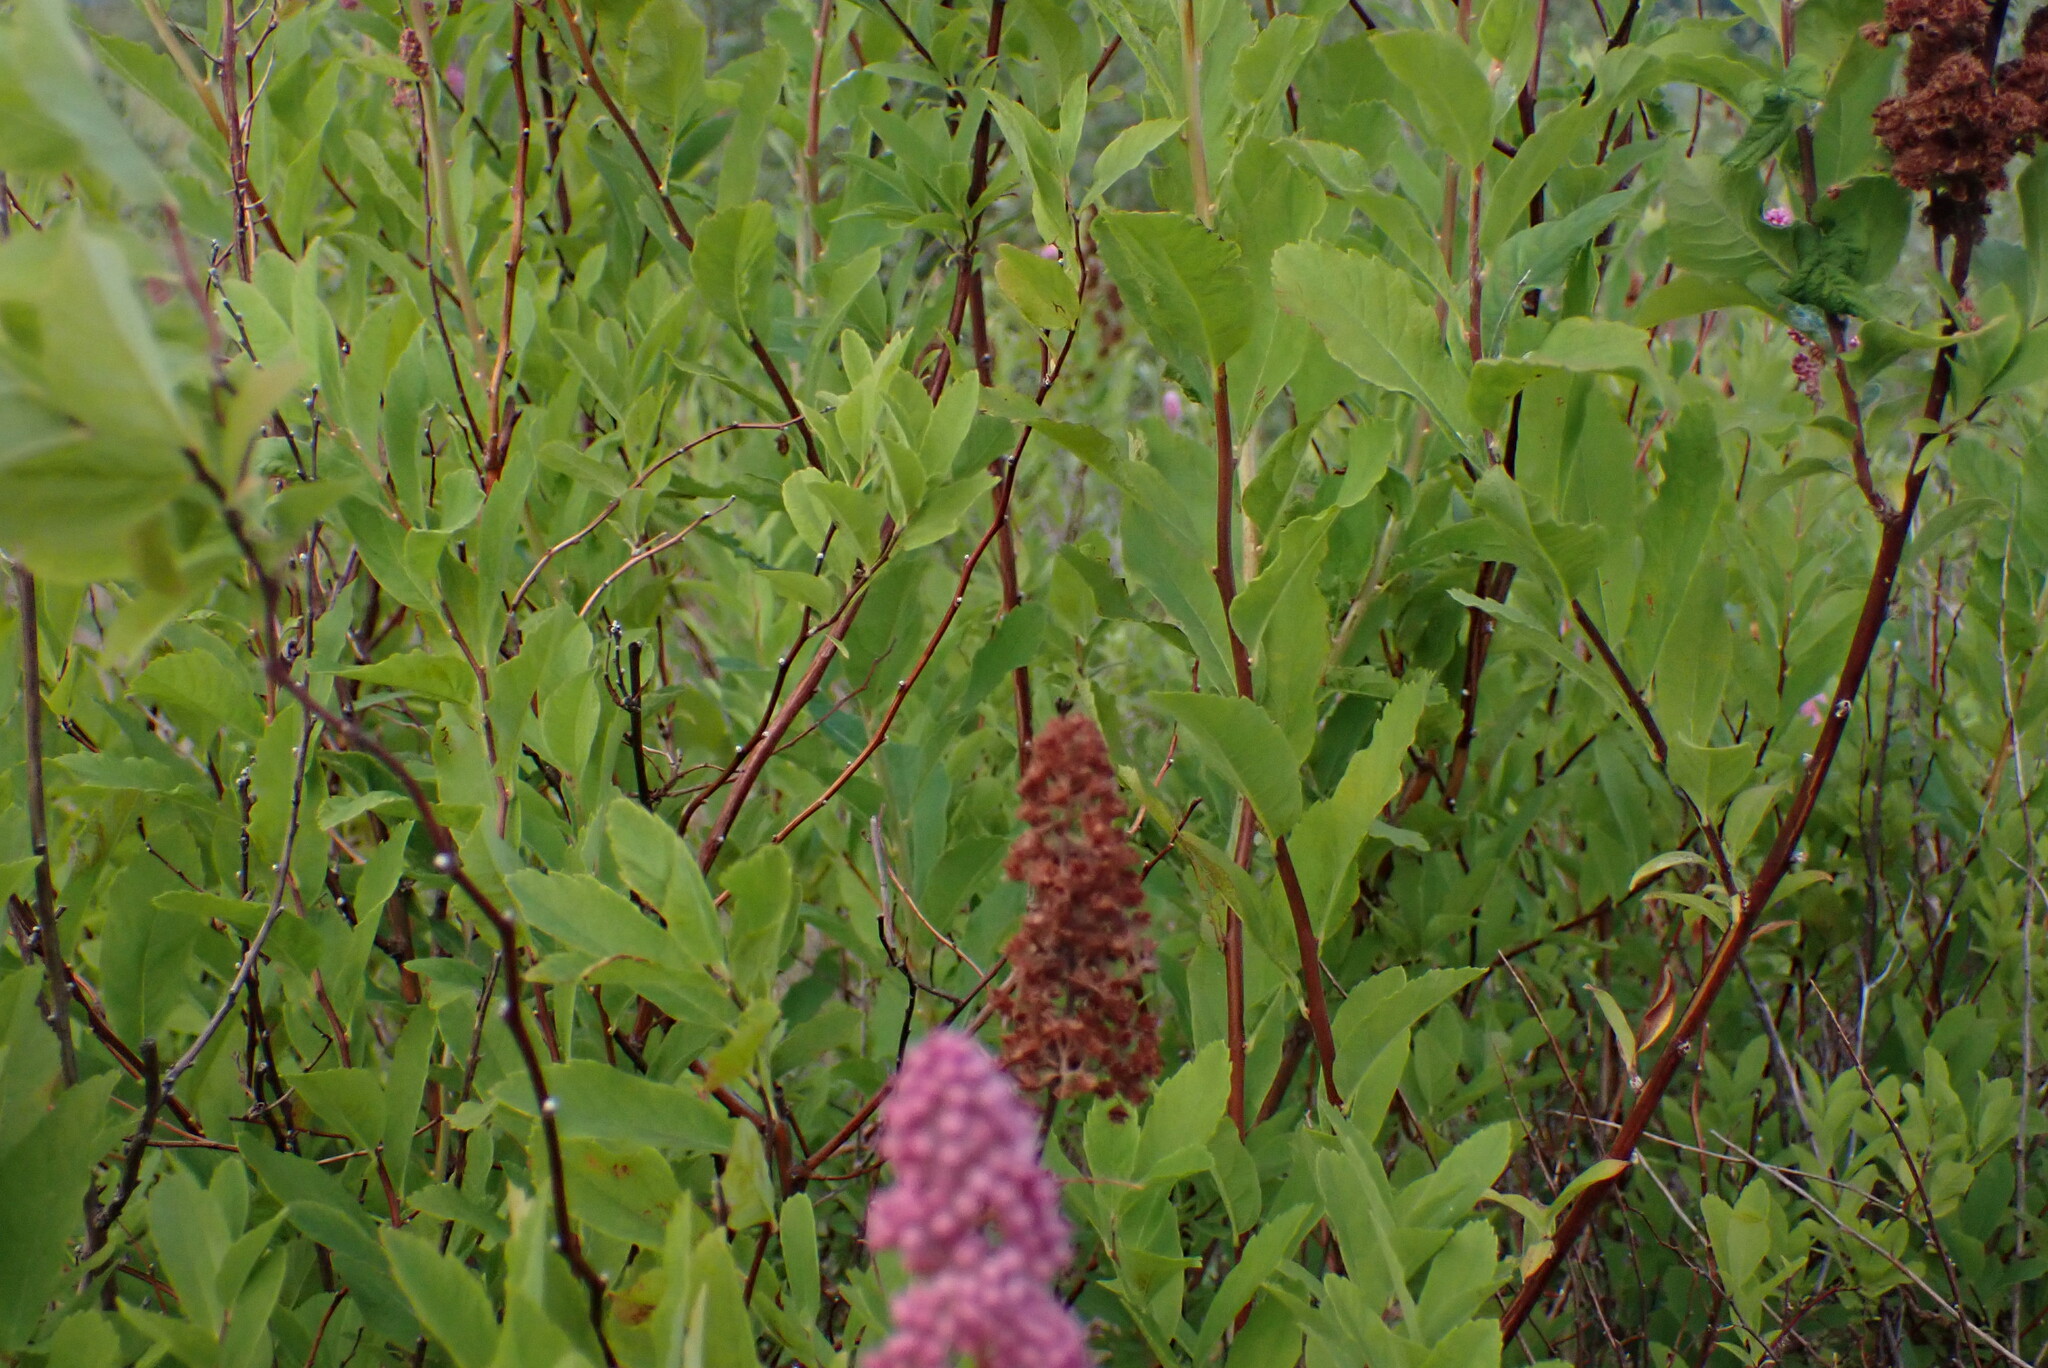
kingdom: Plantae
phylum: Tracheophyta
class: Magnoliopsida
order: Rosales
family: Rosaceae
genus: Spiraea
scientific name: Spiraea douglasii
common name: Steeplebush
